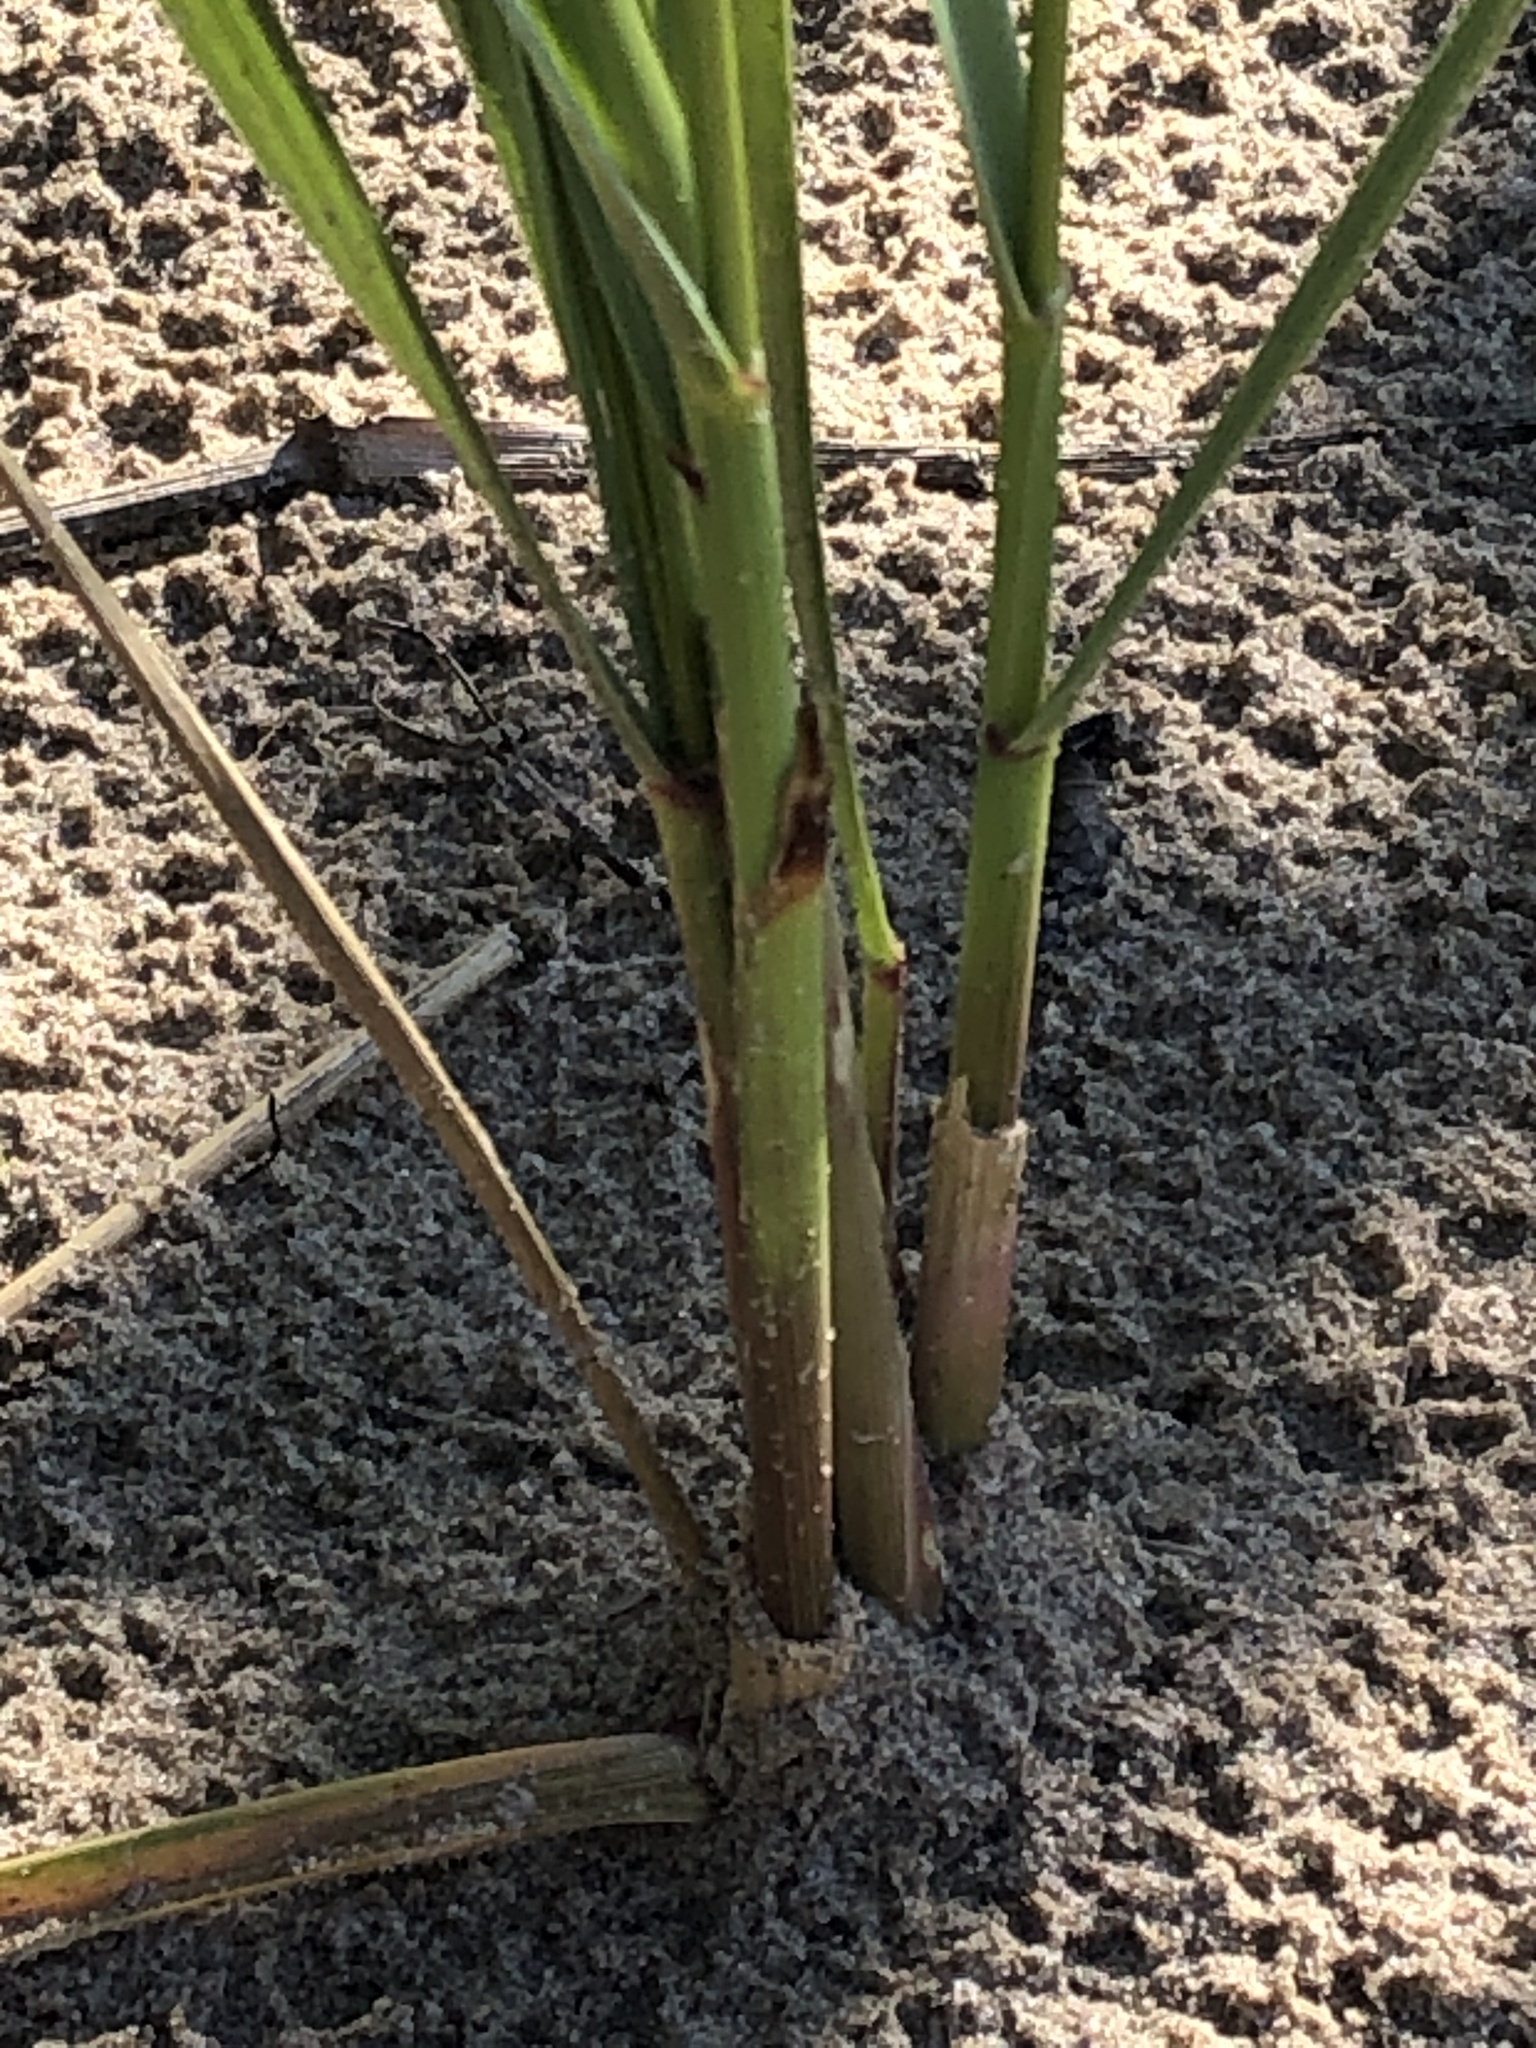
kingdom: Plantae
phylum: Tracheophyta
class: Liliopsida
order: Poales
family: Poaceae
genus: Calamagrostis
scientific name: Calamagrostis breviligulata
